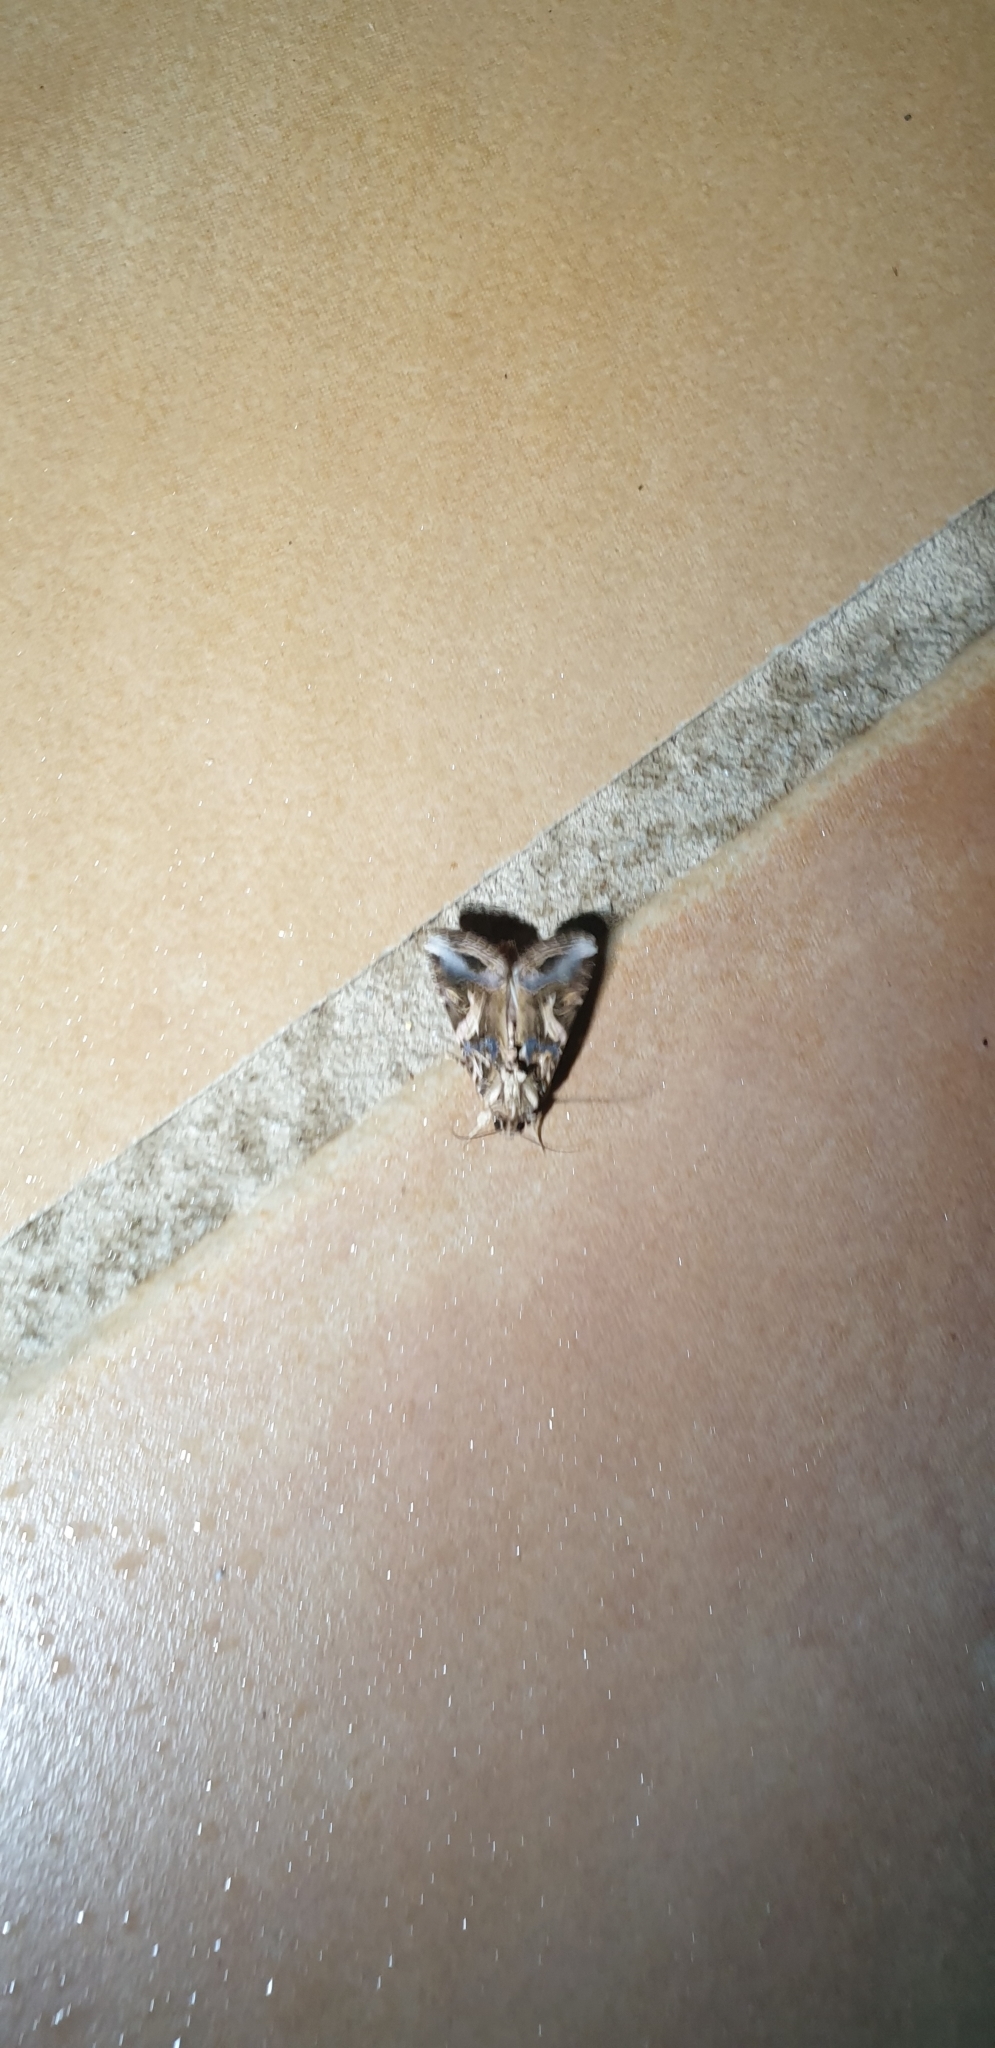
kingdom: Animalia
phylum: Arthropoda
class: Insecta
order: Lepidoptera
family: Noctuidae
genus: Spodoptera
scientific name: Spodoptera litura
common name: Asian cotton leafworm
